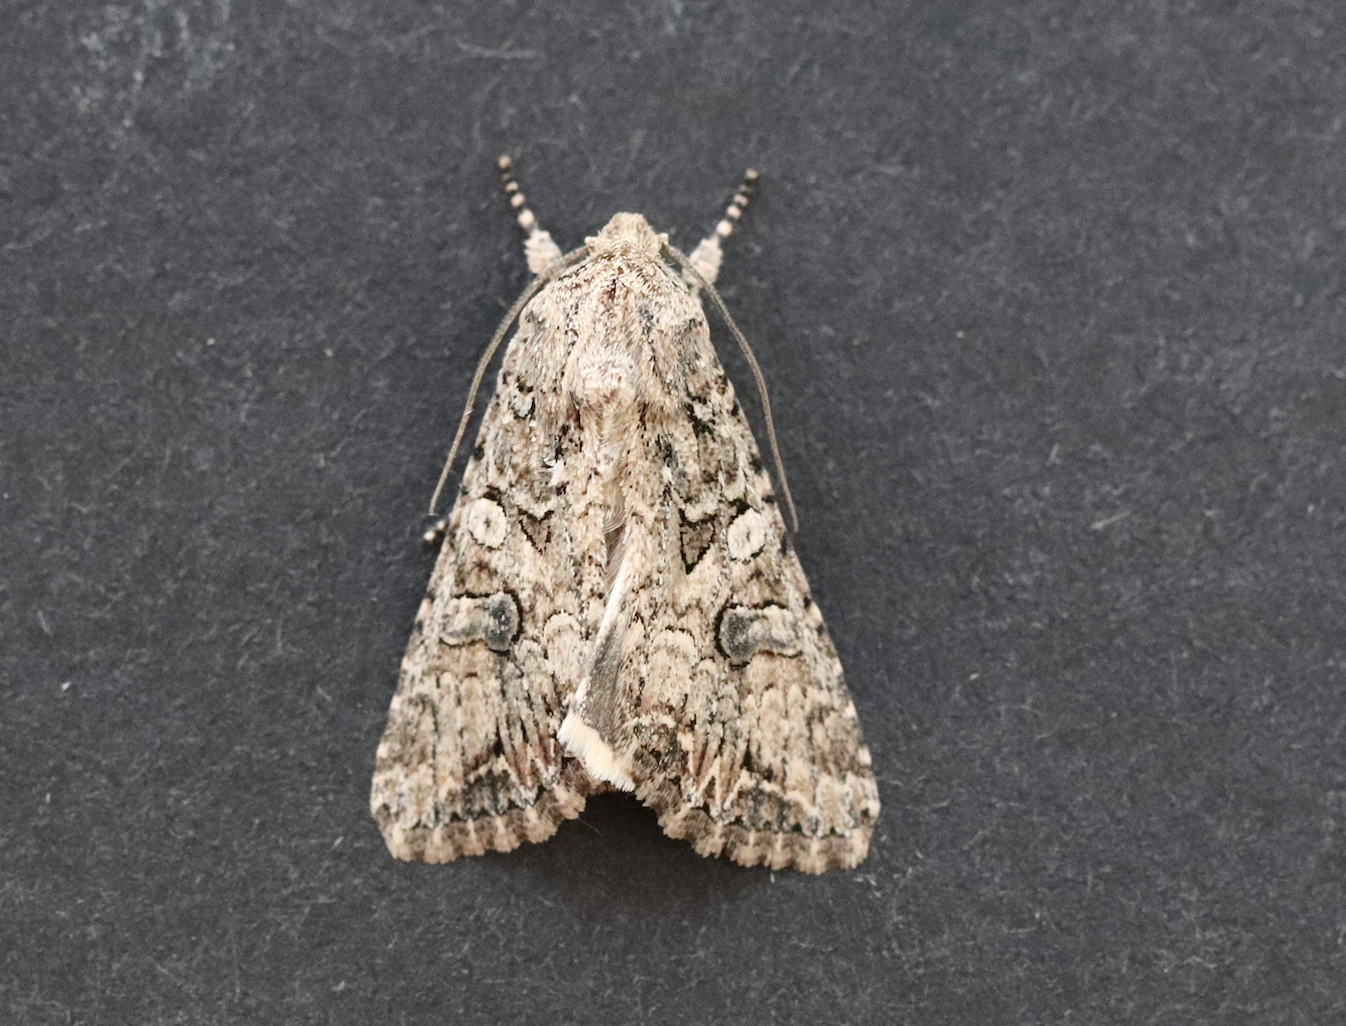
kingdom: Animalia
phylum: Arthropoda
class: Insecta
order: Lepidoptera
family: Noctuidae
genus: Anarta
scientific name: Anarta trifolii
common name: Clover cutworm moth
